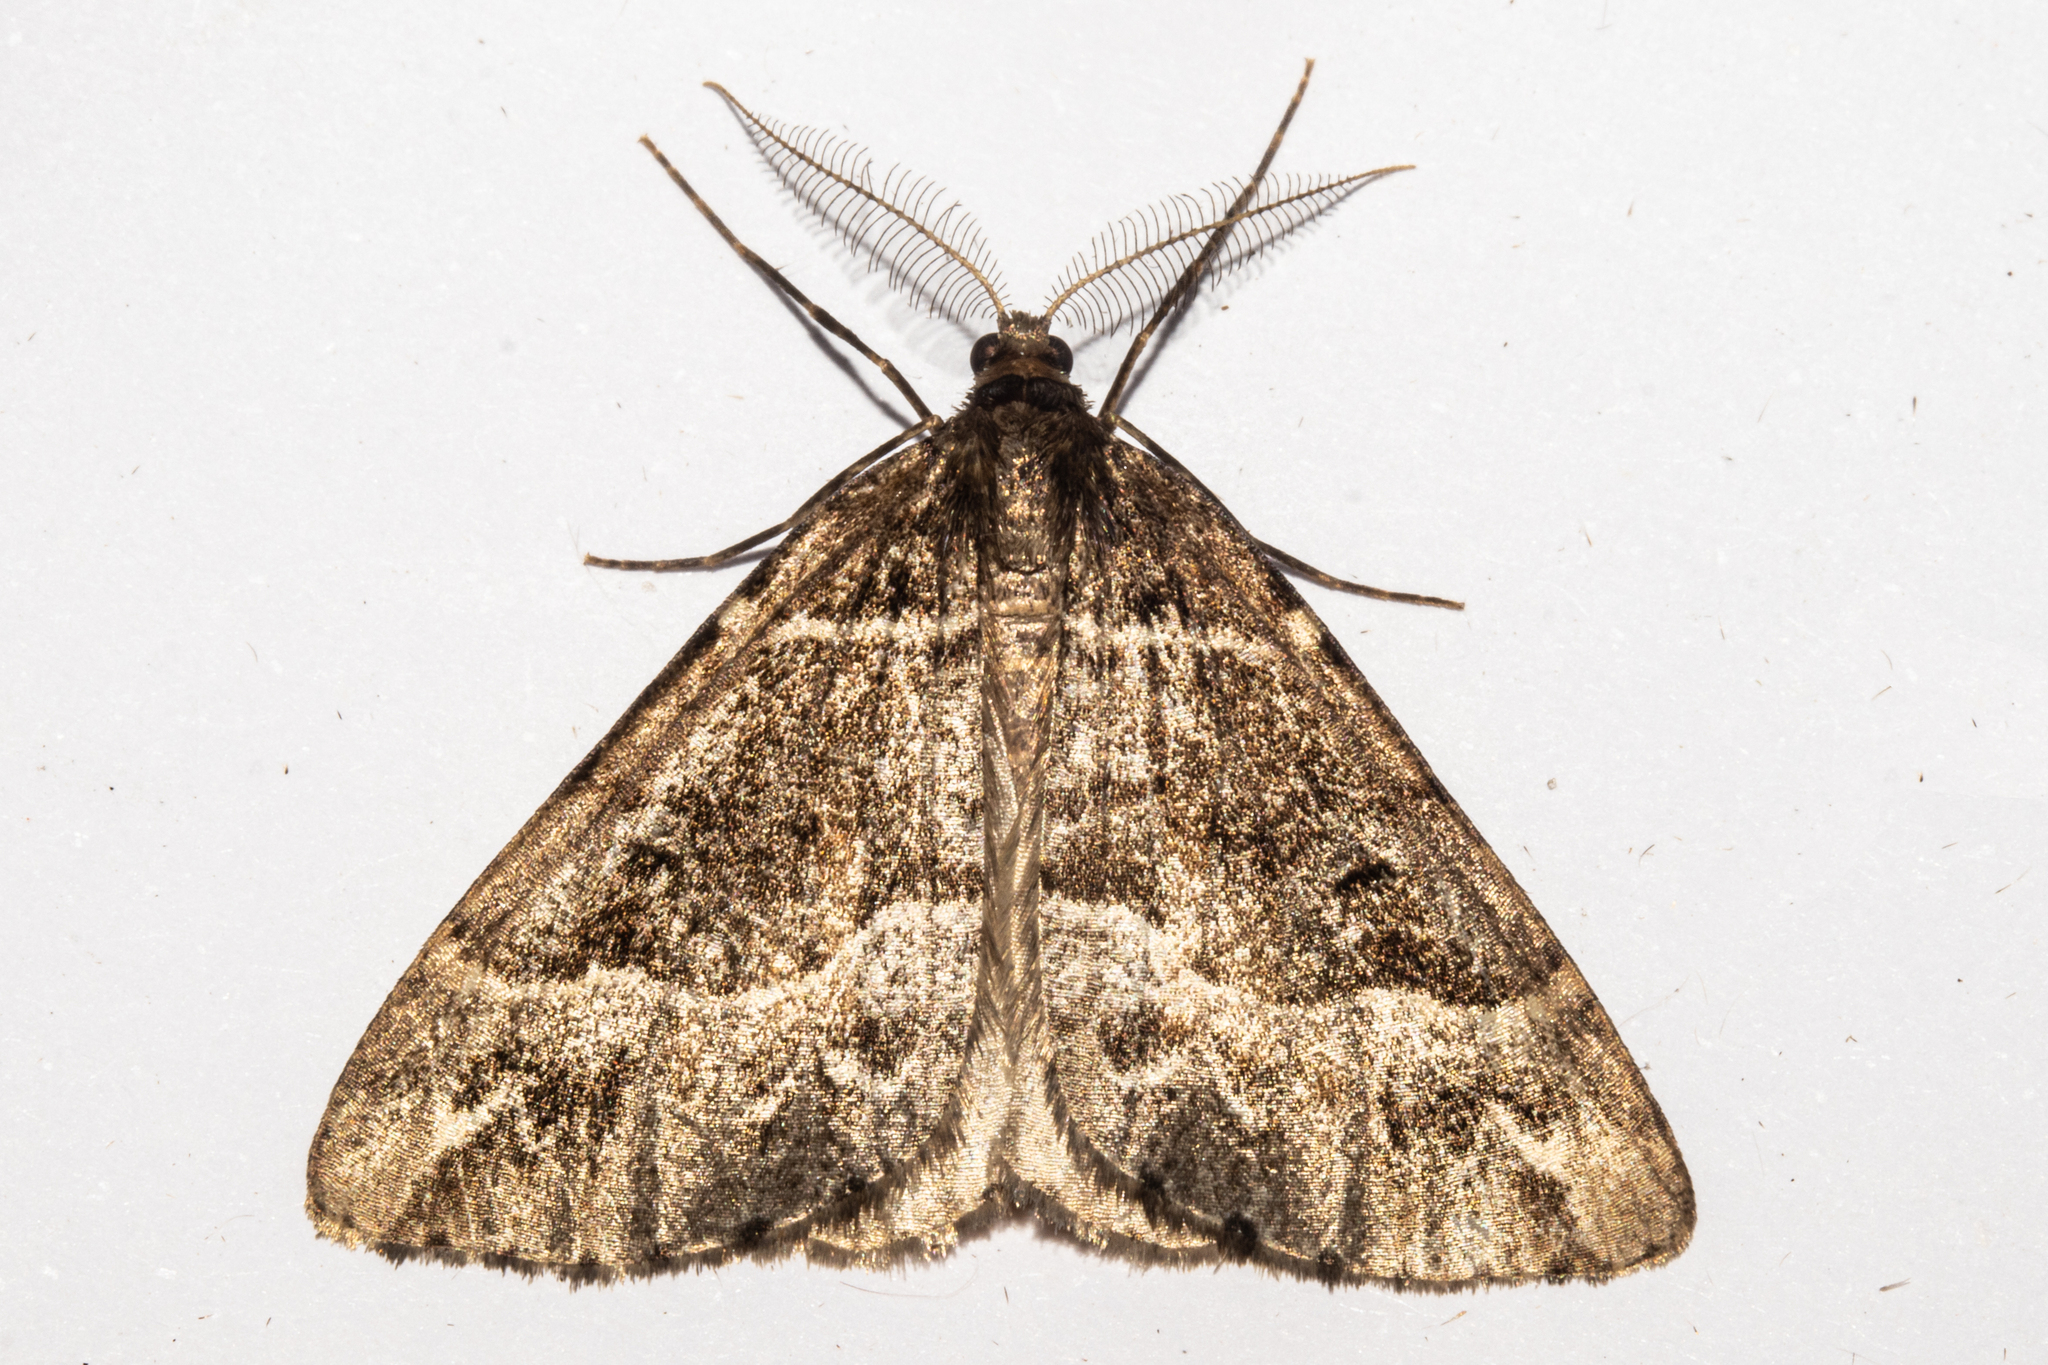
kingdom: Animalia
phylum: Arthropoda
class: Insecta
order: Lepidoptera
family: Geometridae
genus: Pseudocoremia
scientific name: Pseudocoremia colpogramma
